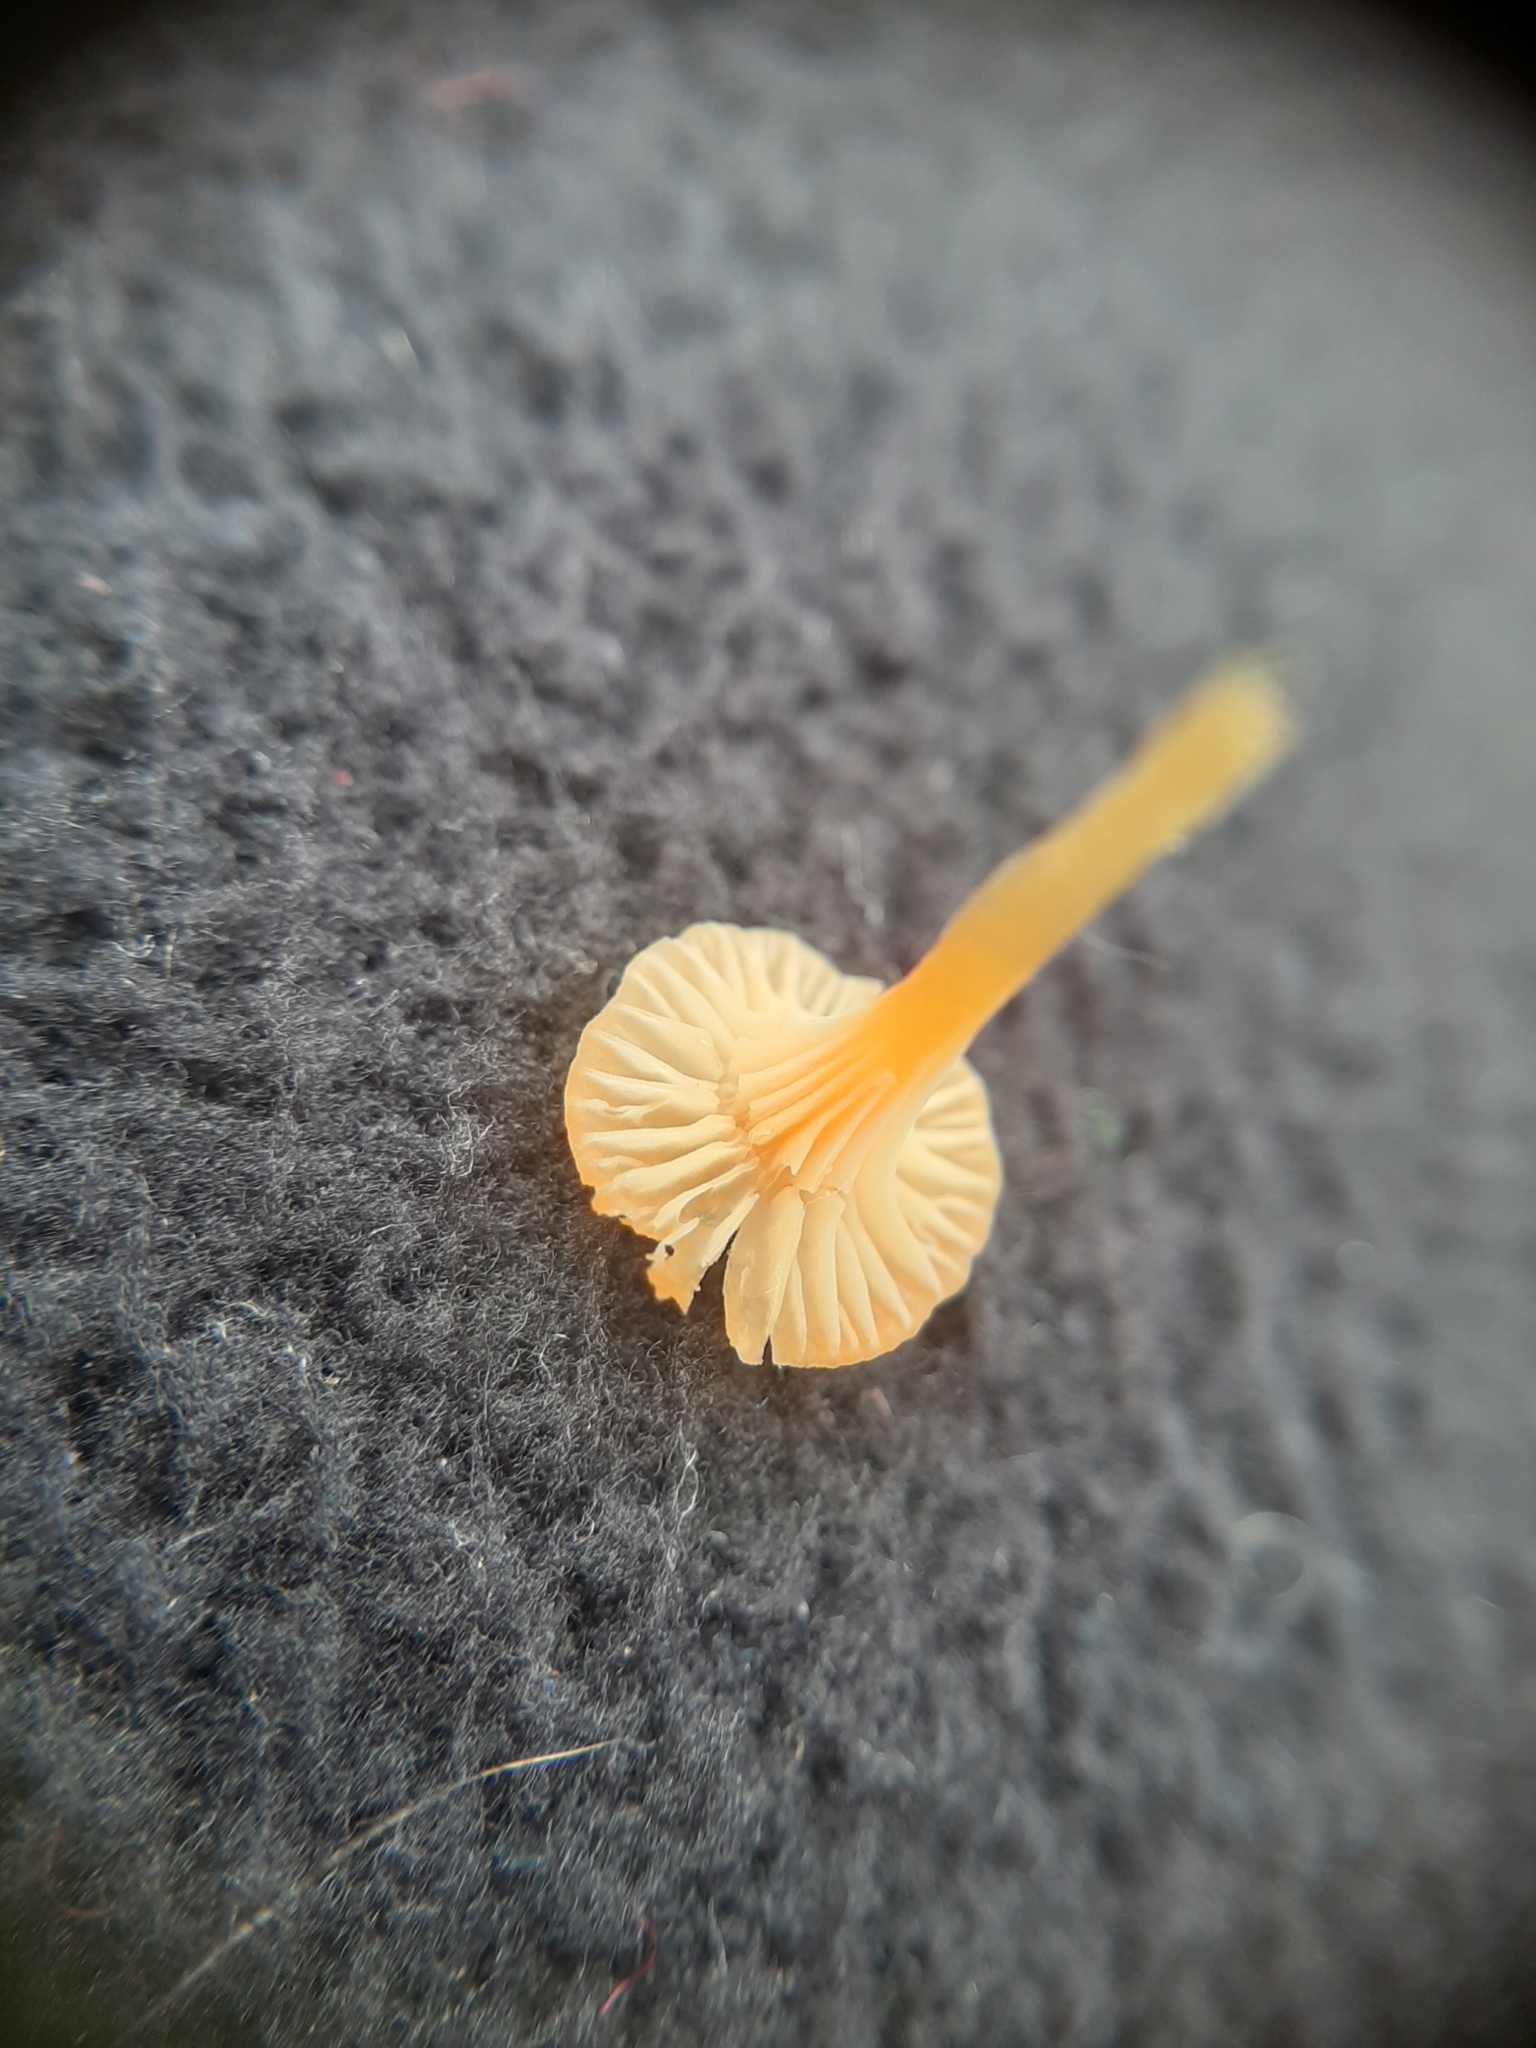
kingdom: Fungi
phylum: Basidiomycota
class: Agaricomycetes
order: Hymenochaetales
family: Rickenellaceae
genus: Rickenella
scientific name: Rickenella fibula
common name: Orange mosscap
